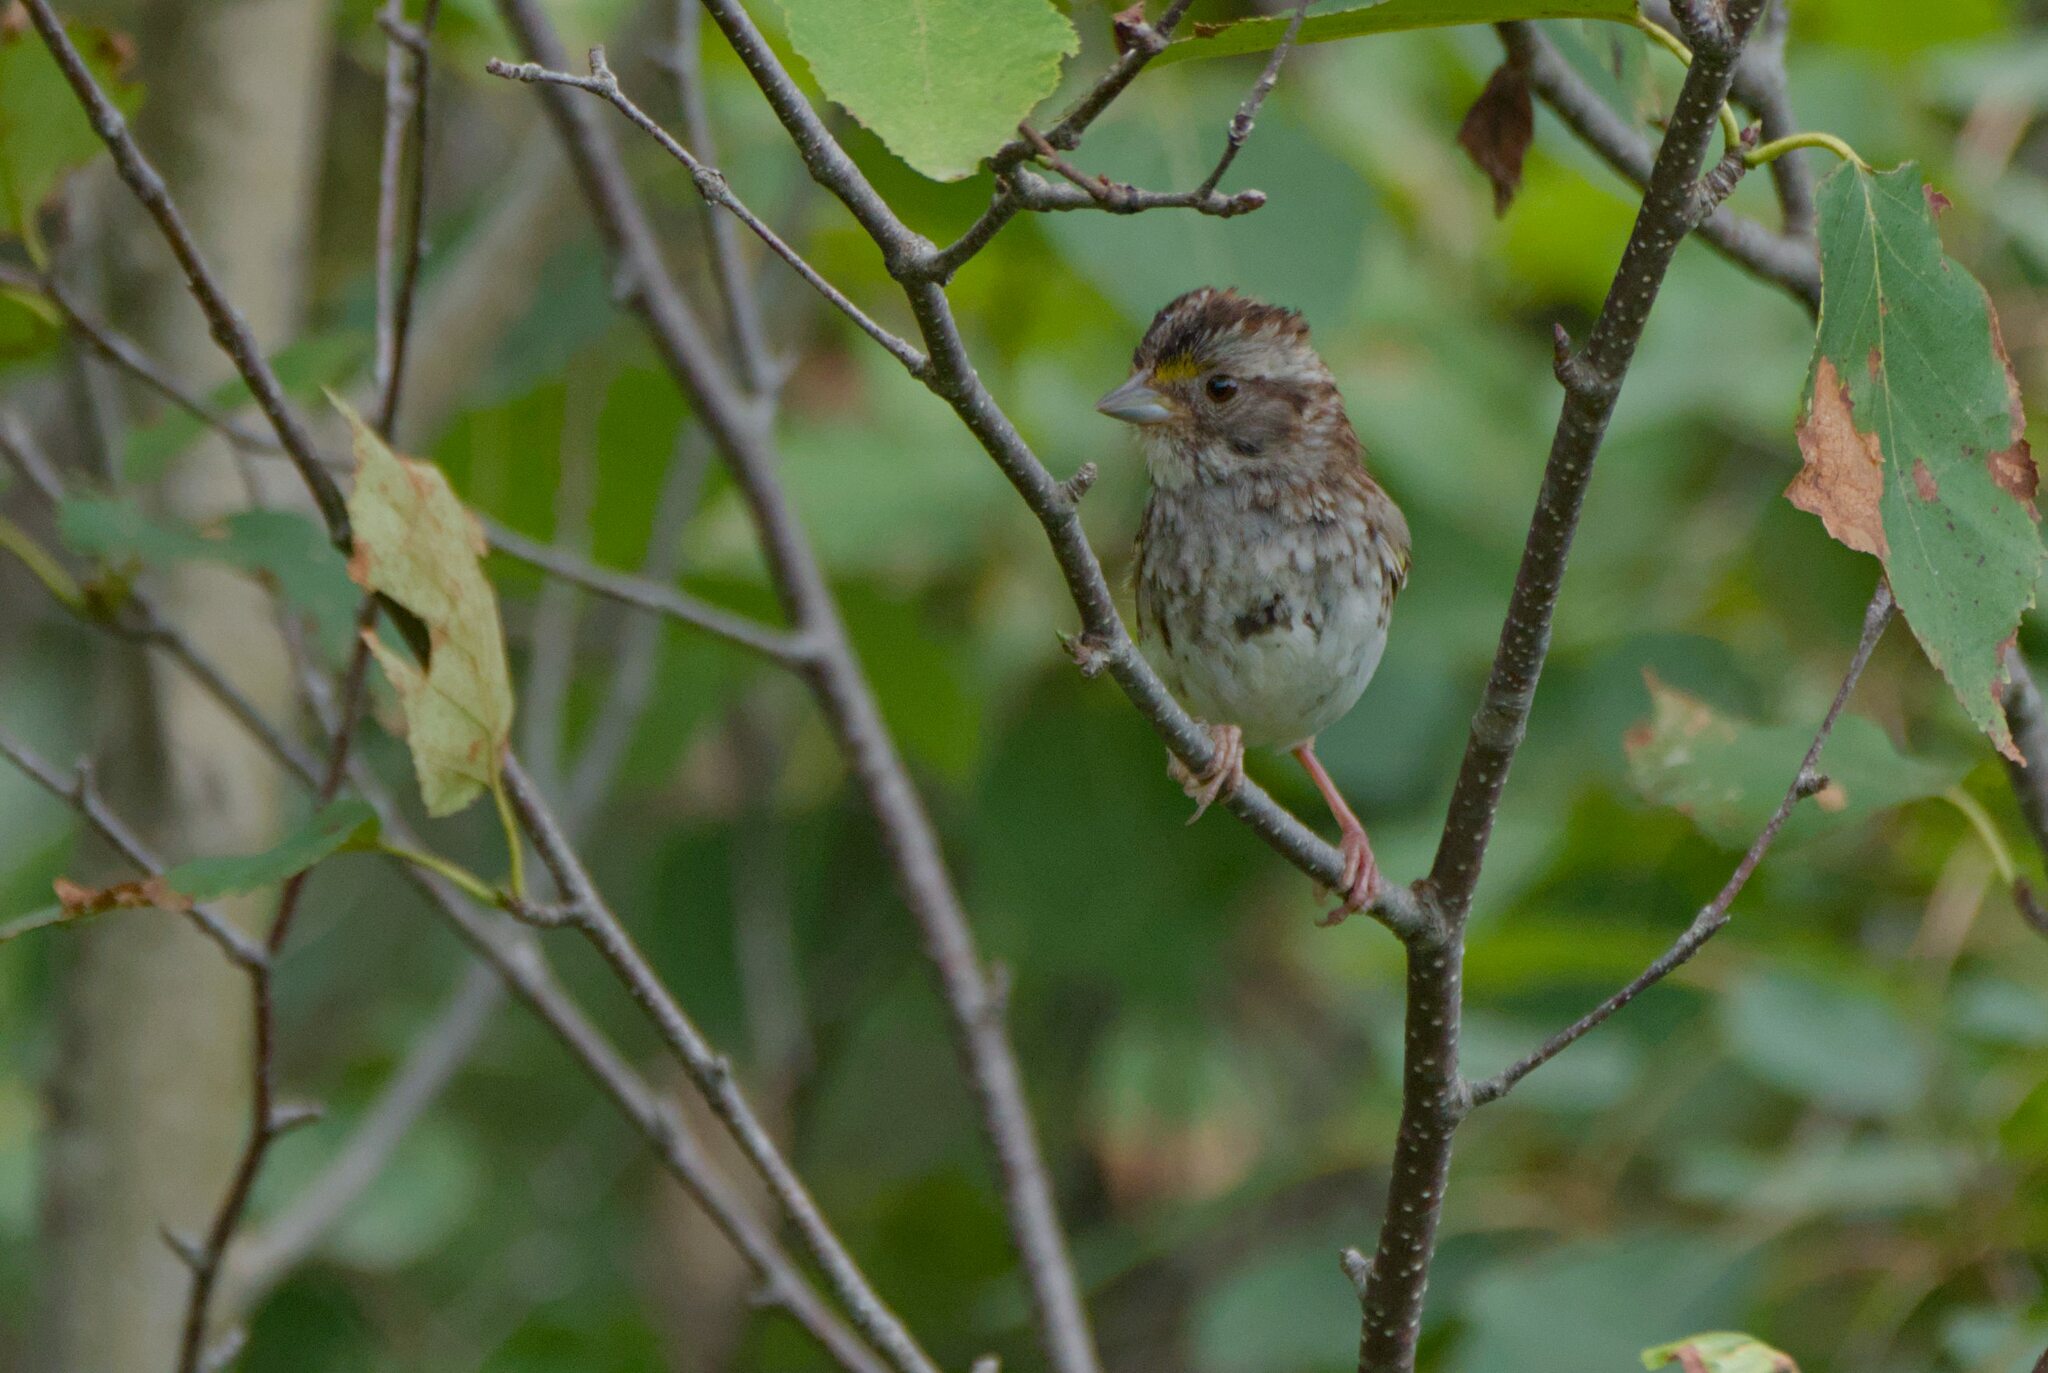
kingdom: Animalia
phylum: Chordata
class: Aves
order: Passeriformes
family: Passerellidae
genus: Zonotrichia
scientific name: Zonotrichia albicollis
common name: White-throated sparrow
